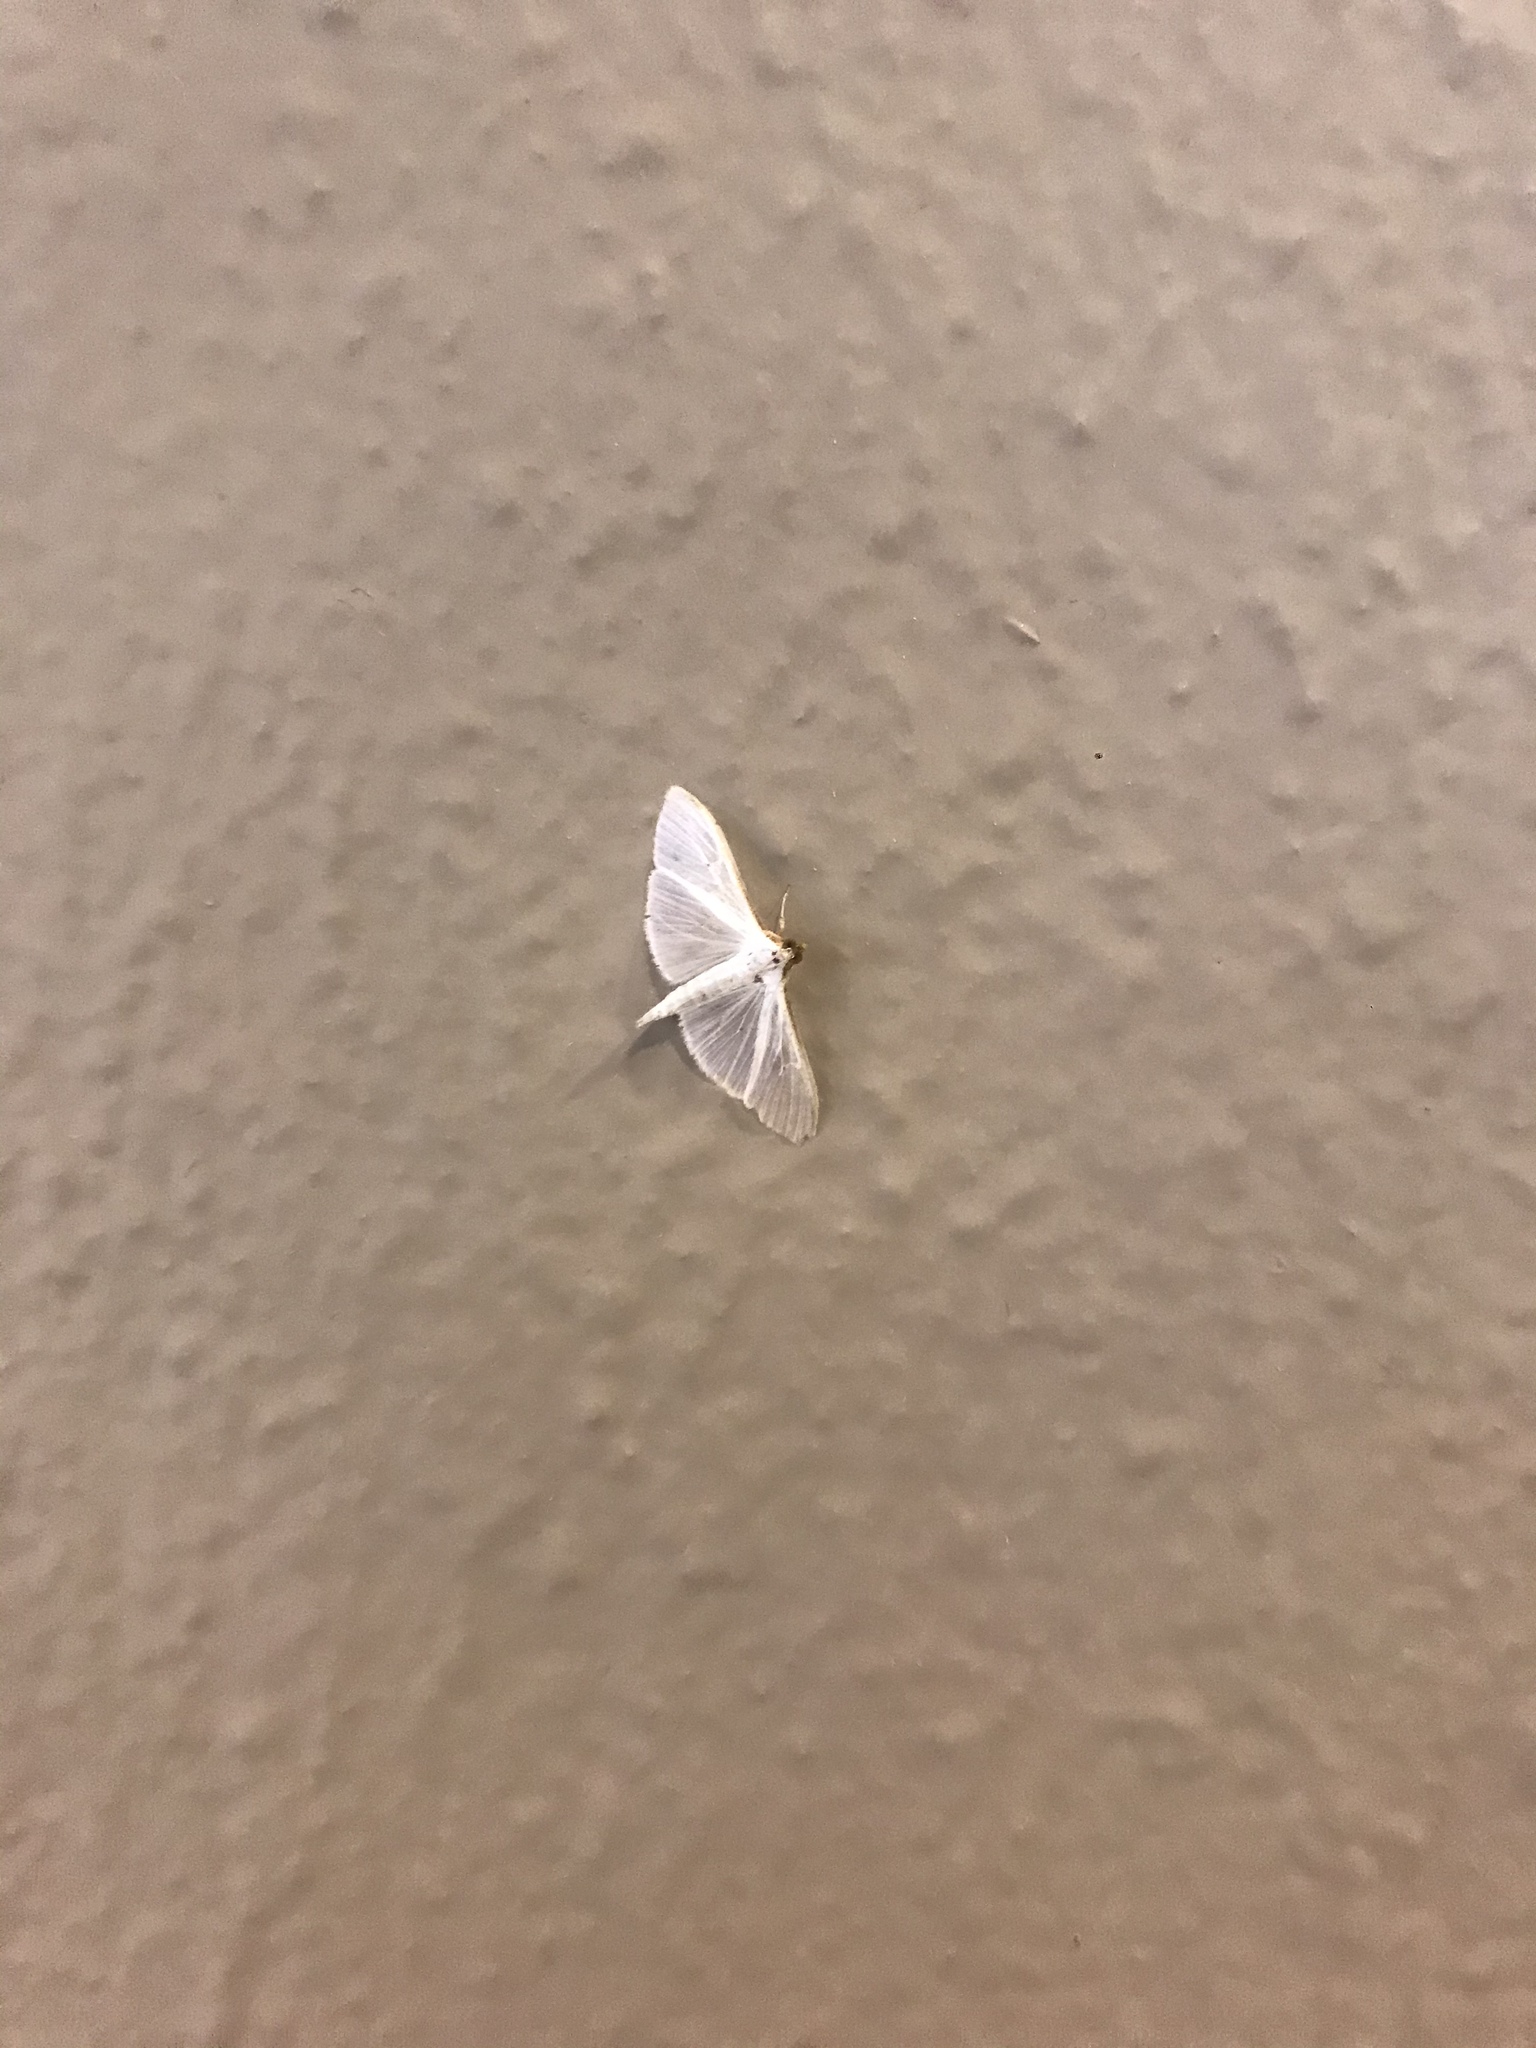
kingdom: Animalia
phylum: Arthropoda
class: Insecta
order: Lepidoptera
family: Crambidae
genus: Palpita
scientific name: Palpita vitrealis
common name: Olive-tree pearl
